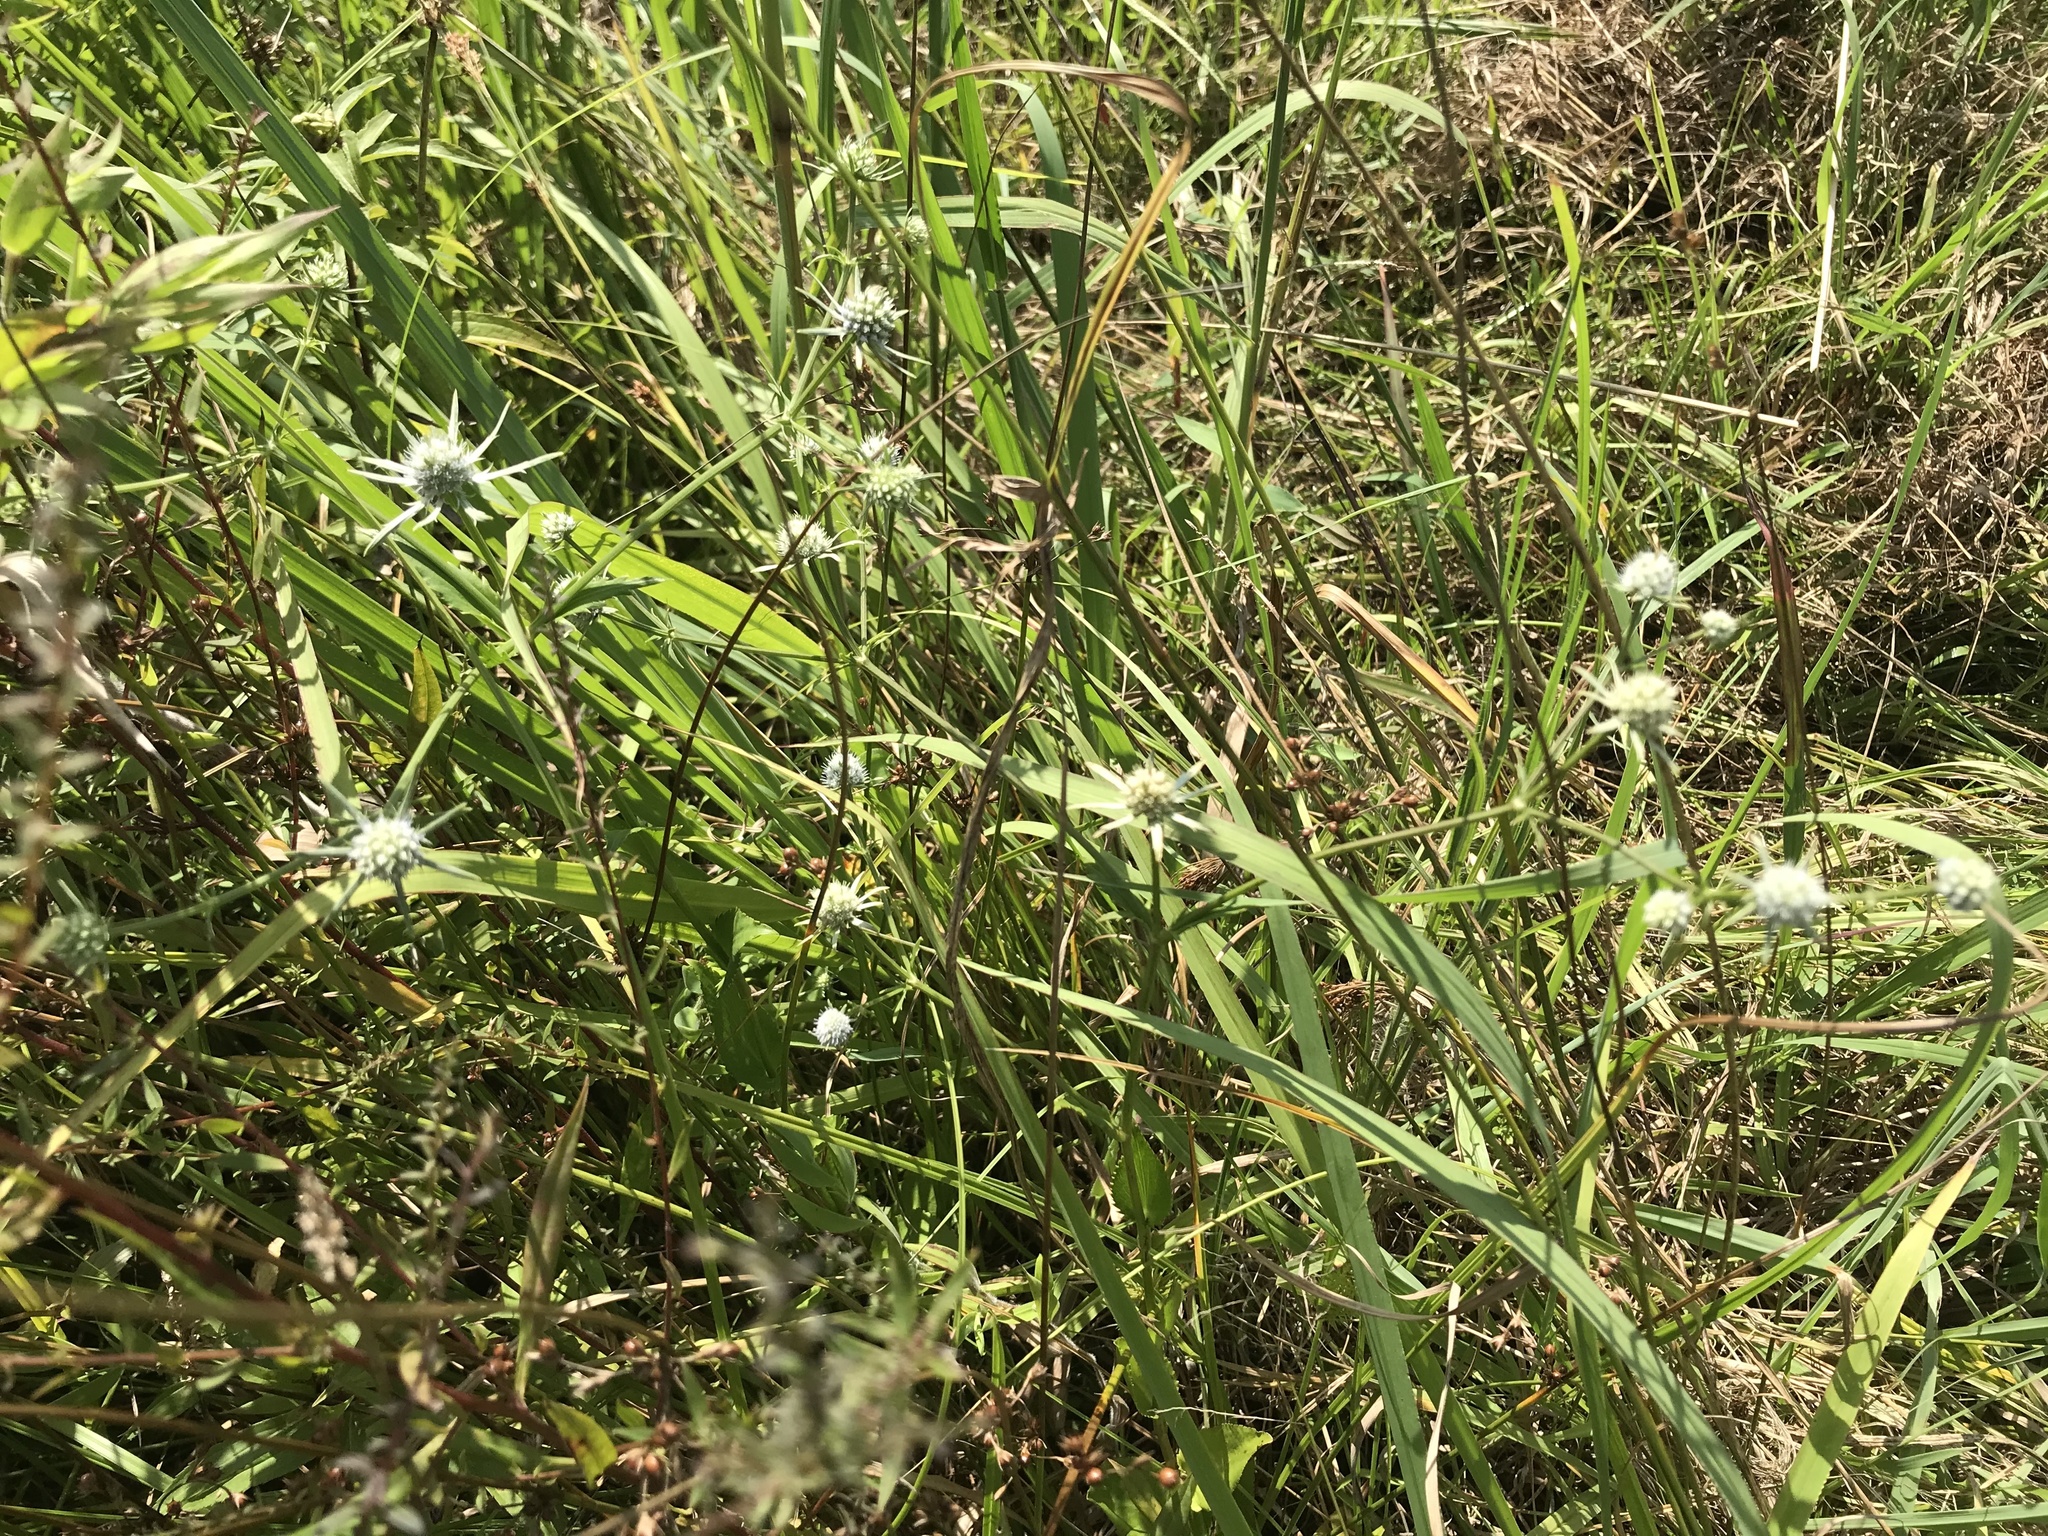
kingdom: Plantae
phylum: Tracheophyta
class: Magnoliopsida
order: Apiales
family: Apiaceae
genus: Eryngium
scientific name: Eryngium integrifolium
